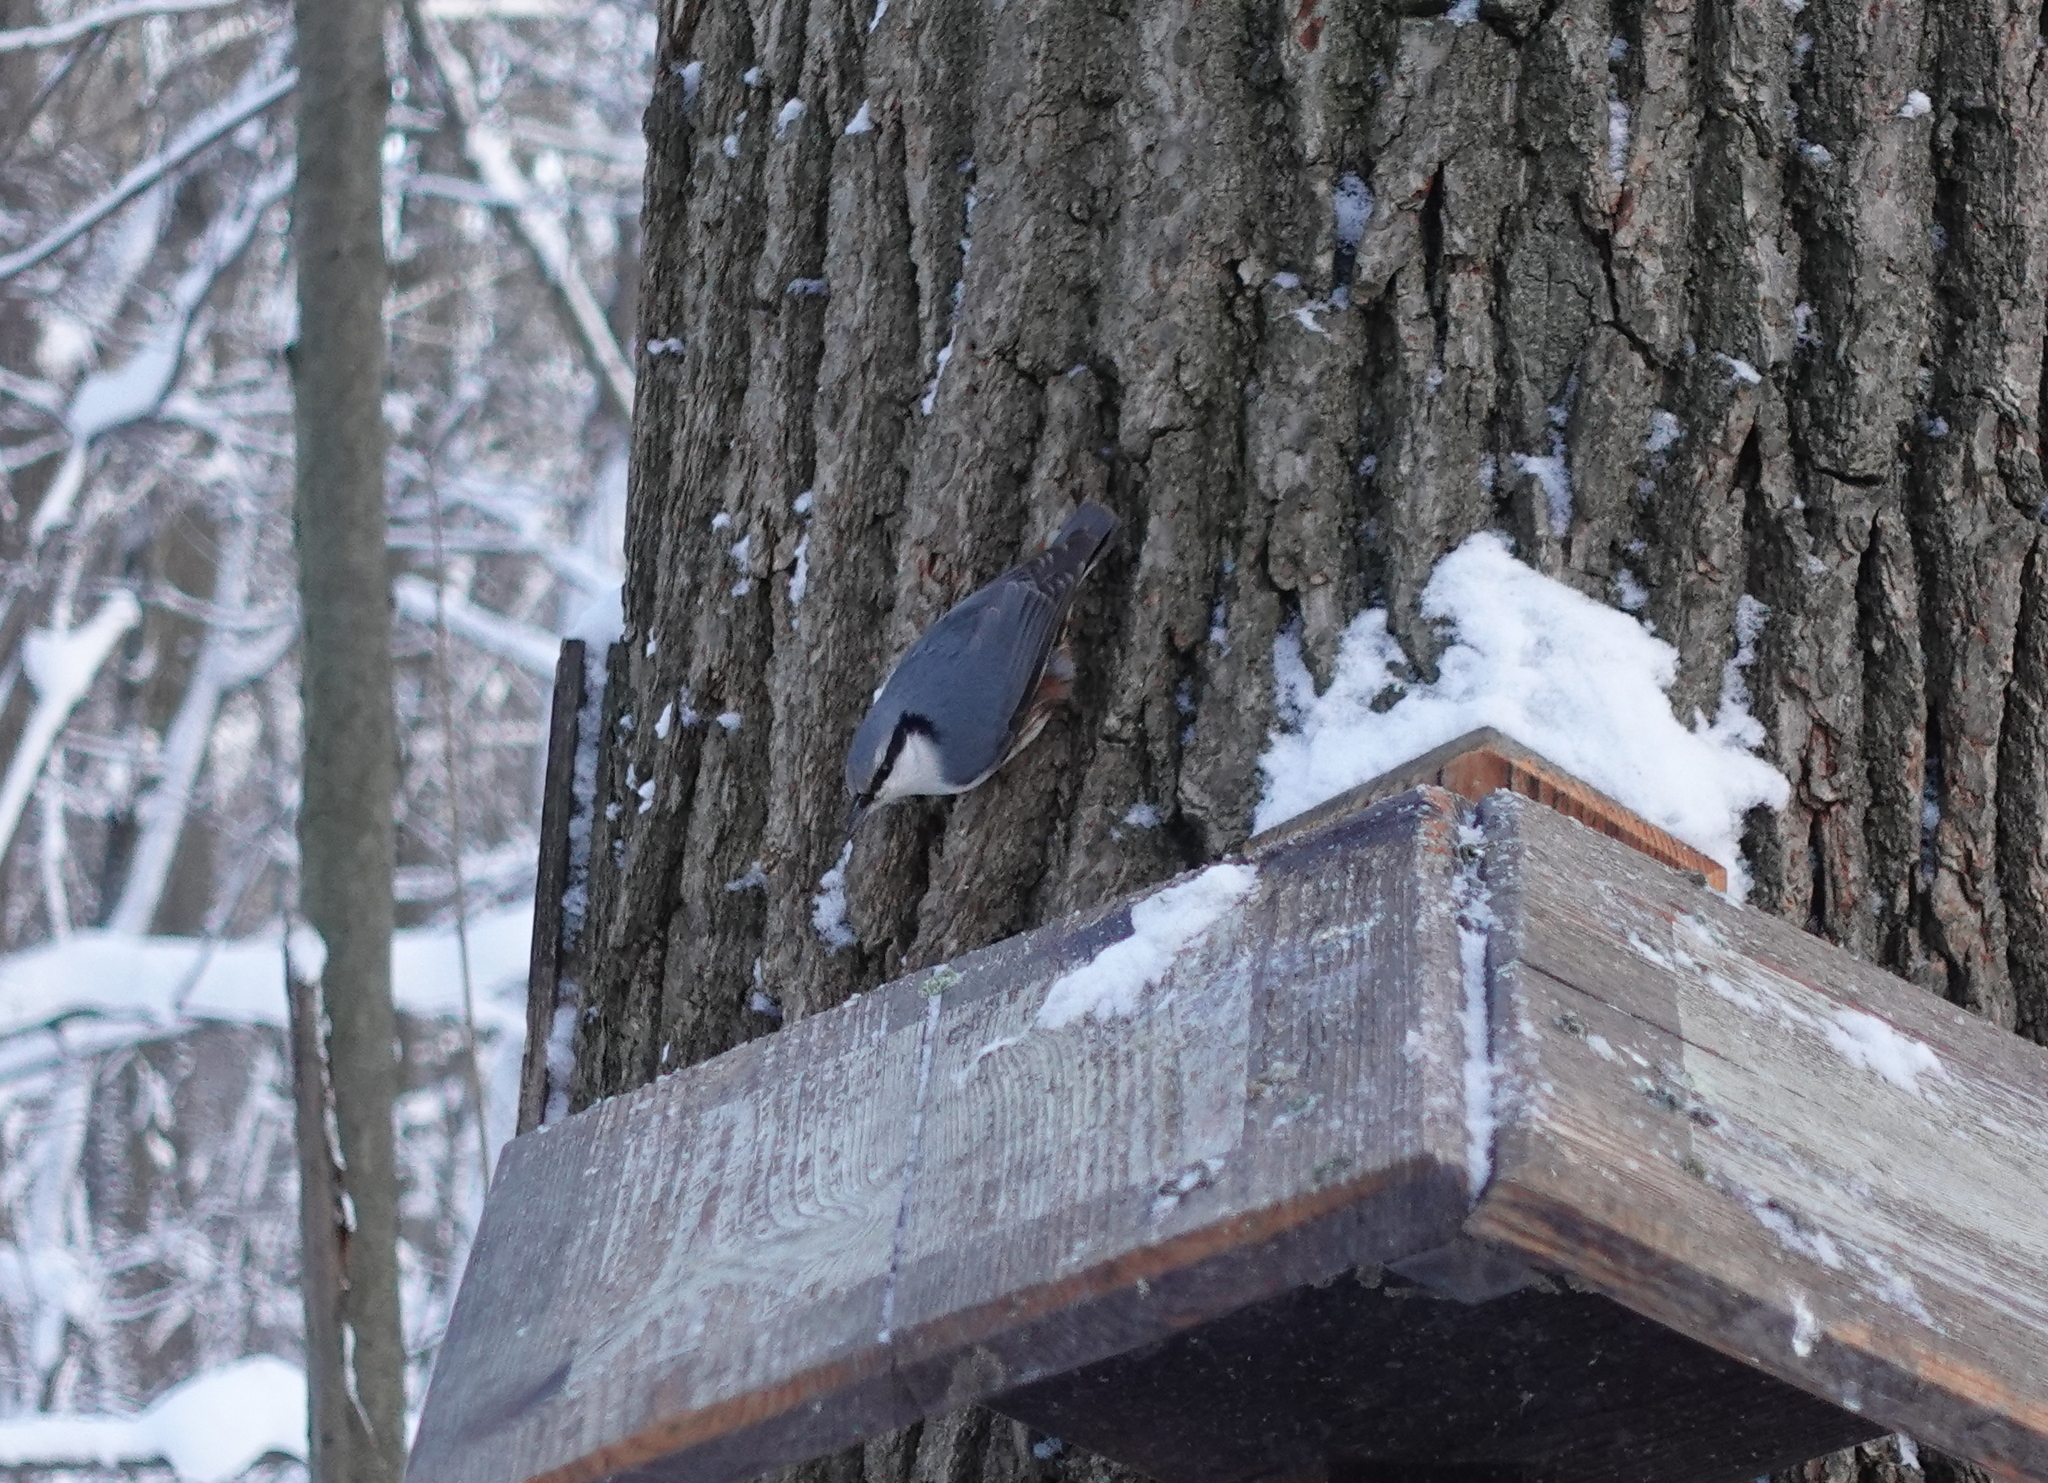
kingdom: Animalia
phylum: Chordata
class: Aves
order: Passeriformes
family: Sittidae
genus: Sitta
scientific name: Sitta europaea
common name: Eurasian nuthatch
